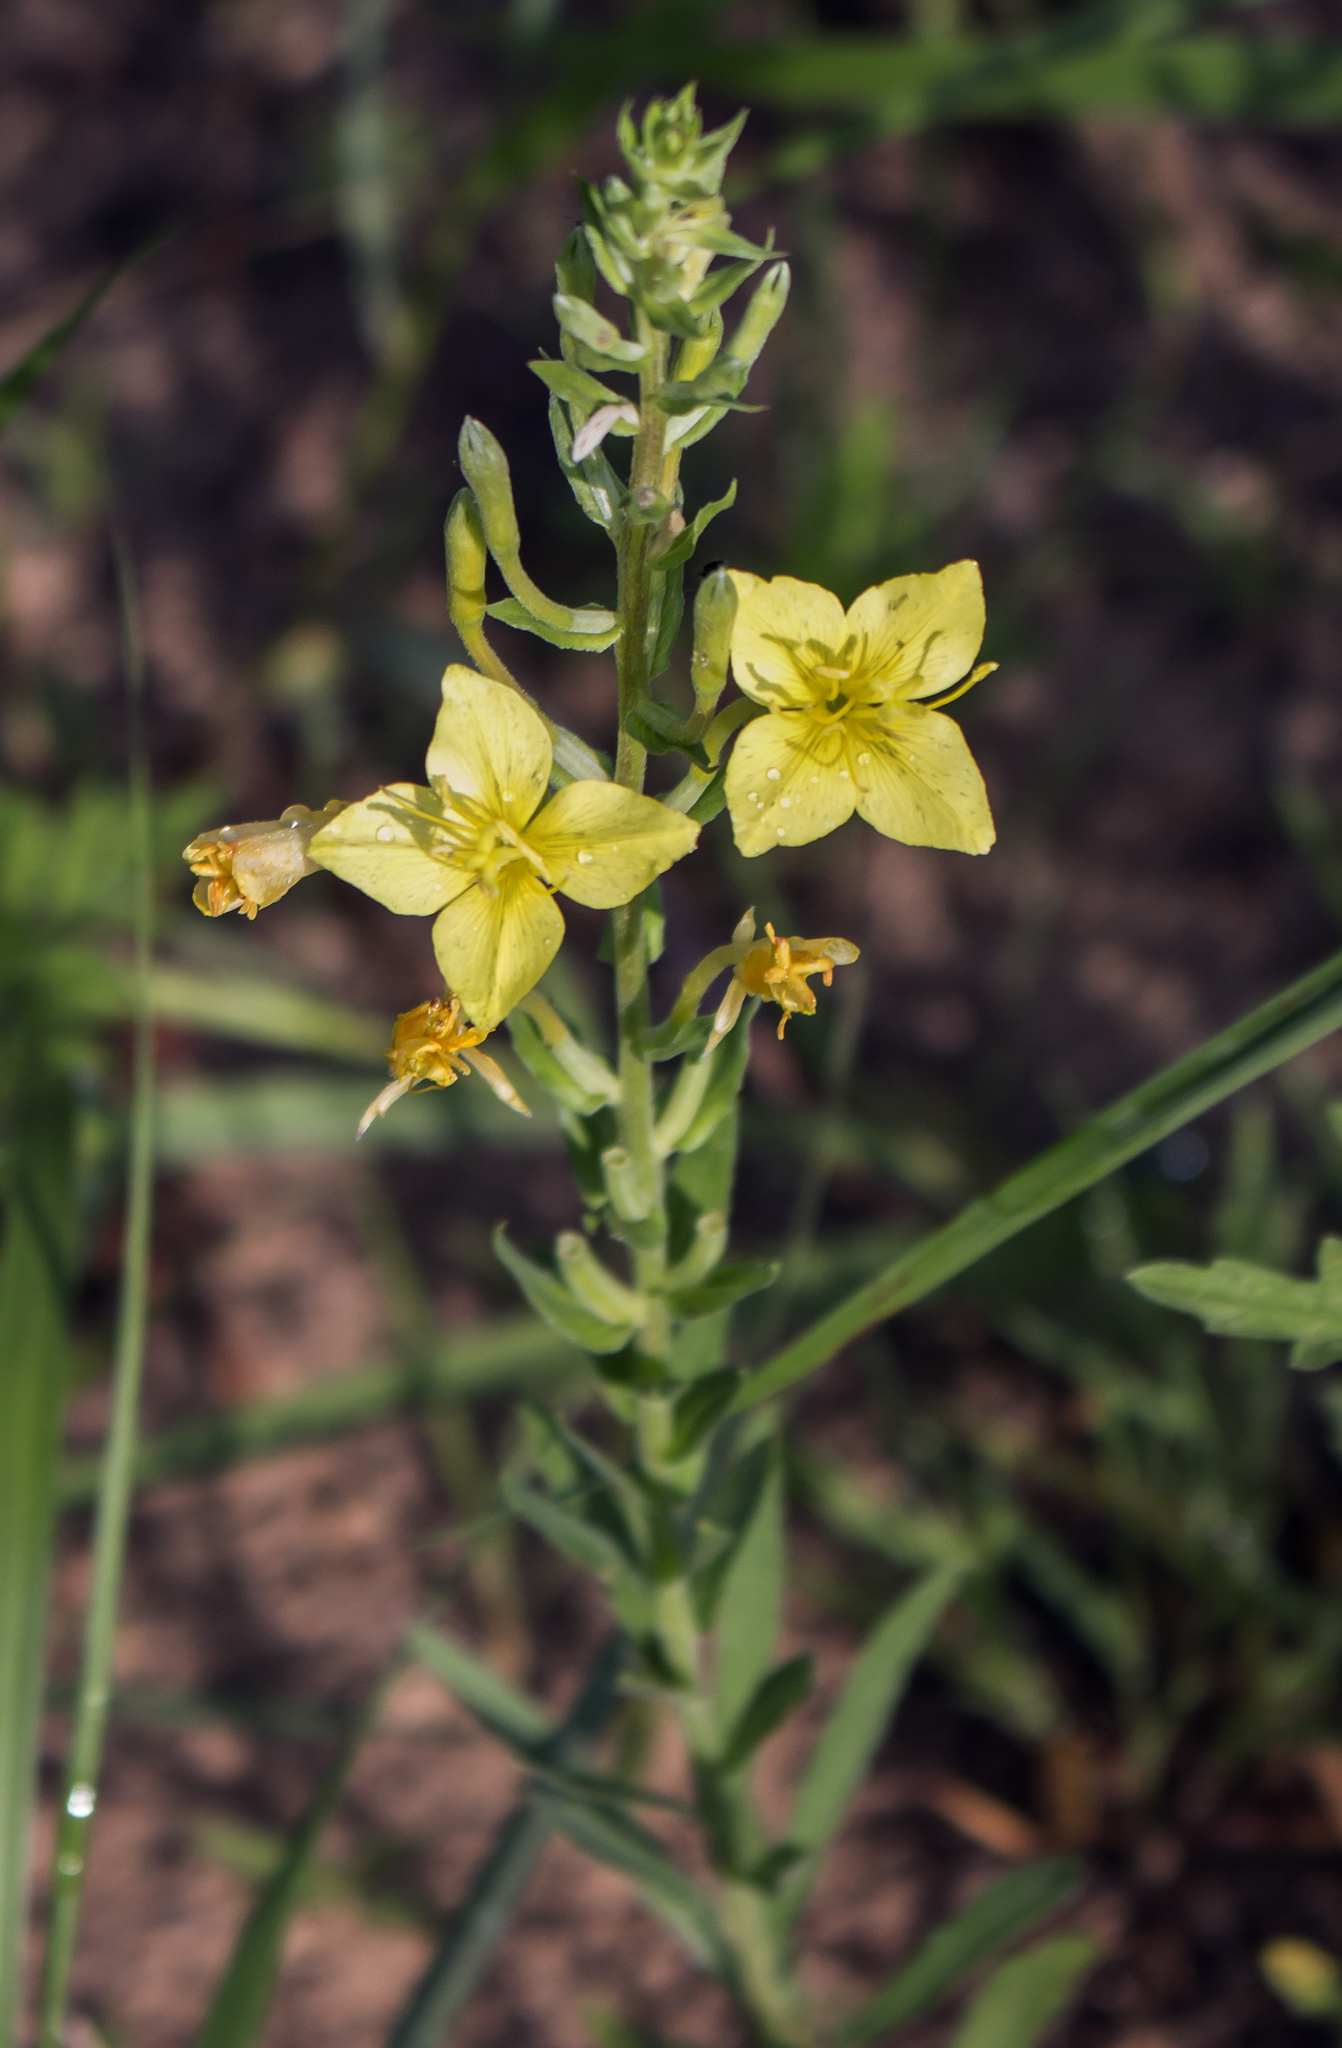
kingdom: Plantae
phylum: Tracheophyta
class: Magnoliopsida
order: Myrtales
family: Onagraceae
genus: Oenothera
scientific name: Oenothera clelandii
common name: Cleland's evening-primrose
